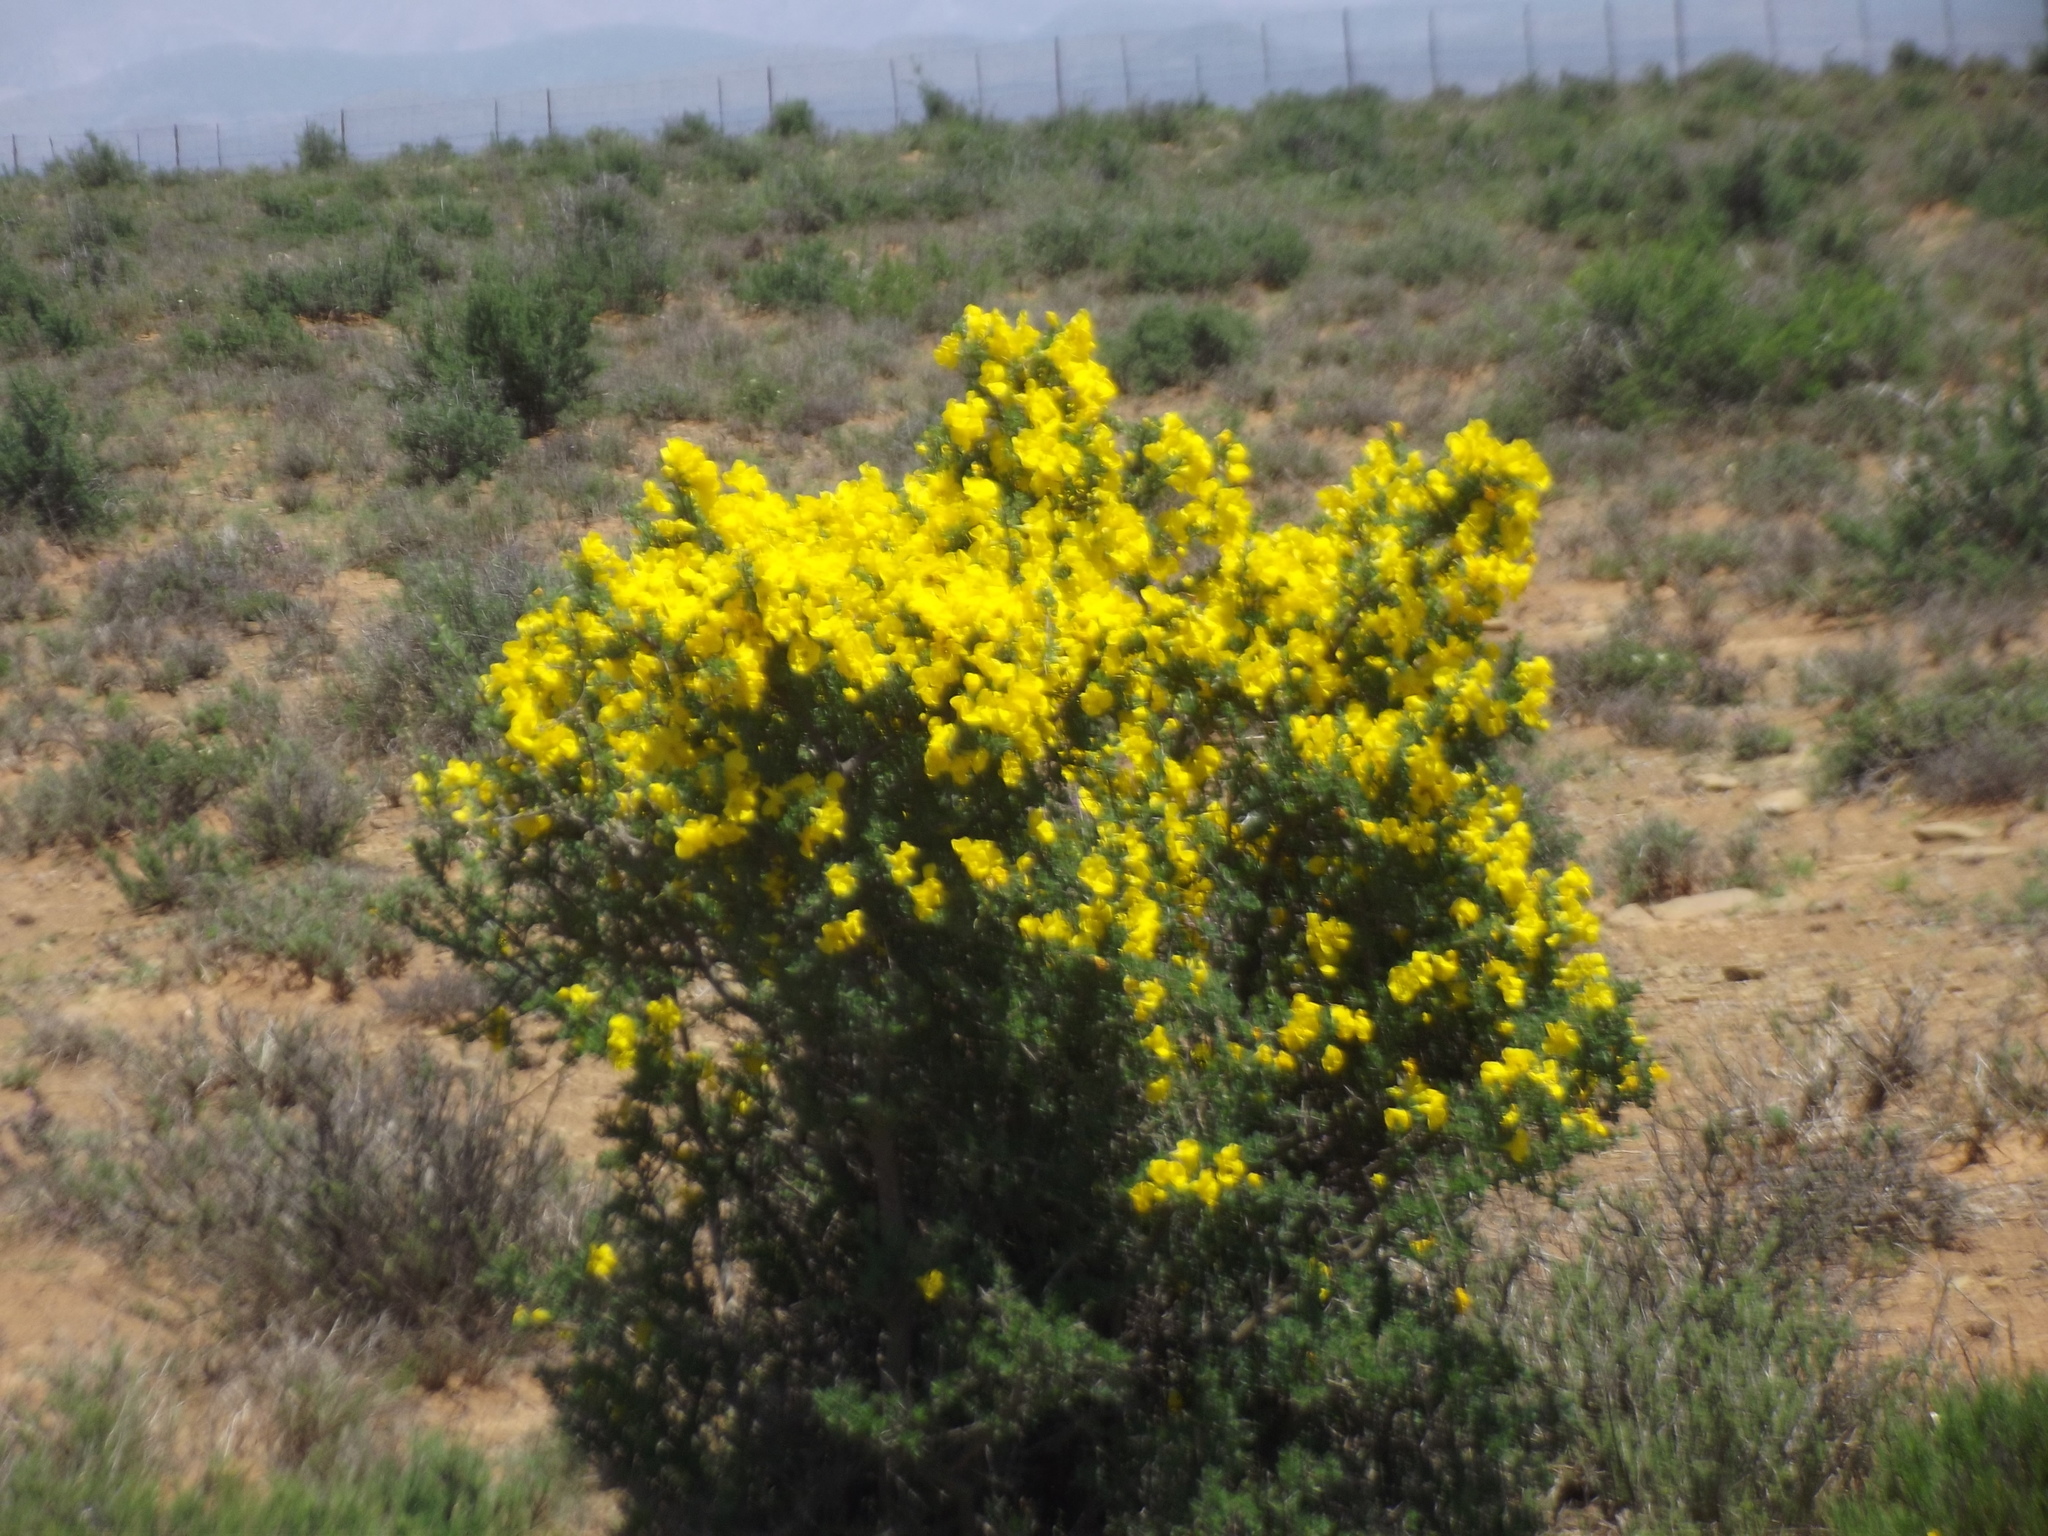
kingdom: Plantae
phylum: Tracheophyta
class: Magnoliopsida
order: Lamiales
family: Bignoniaceae
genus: Rhigozum
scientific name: Rhigozum obovatum
